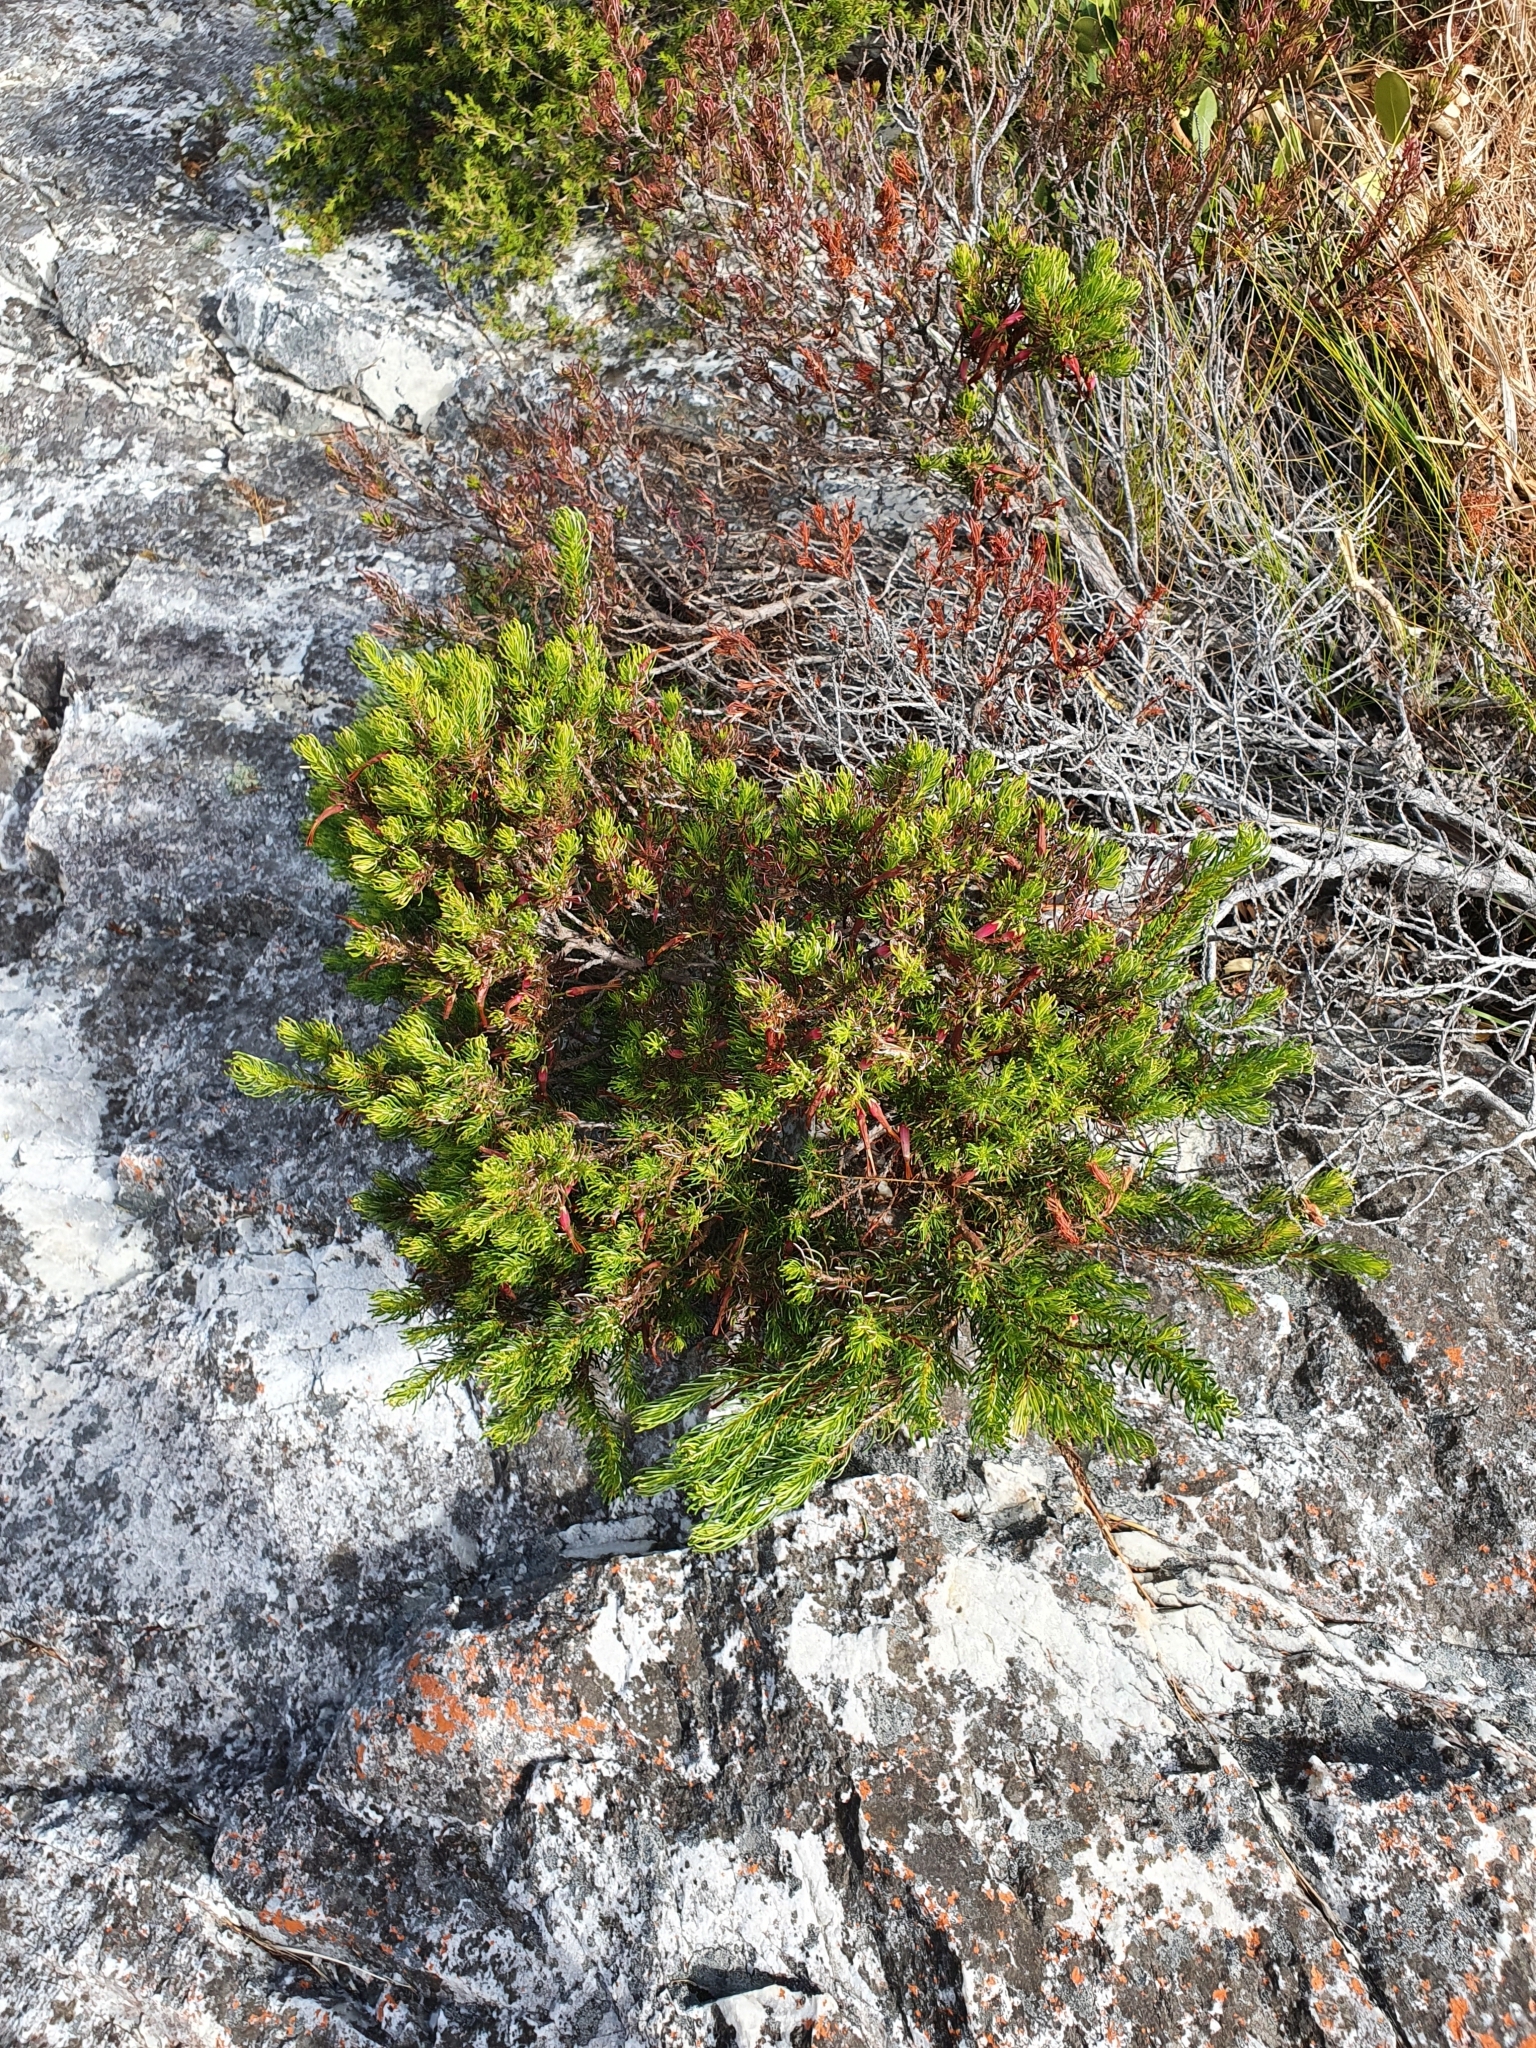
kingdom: Plantae
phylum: Tracheophyta
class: Magnoliopsida
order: Ericales
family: Ericaceae
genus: Erica
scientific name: Erica plukenetii
